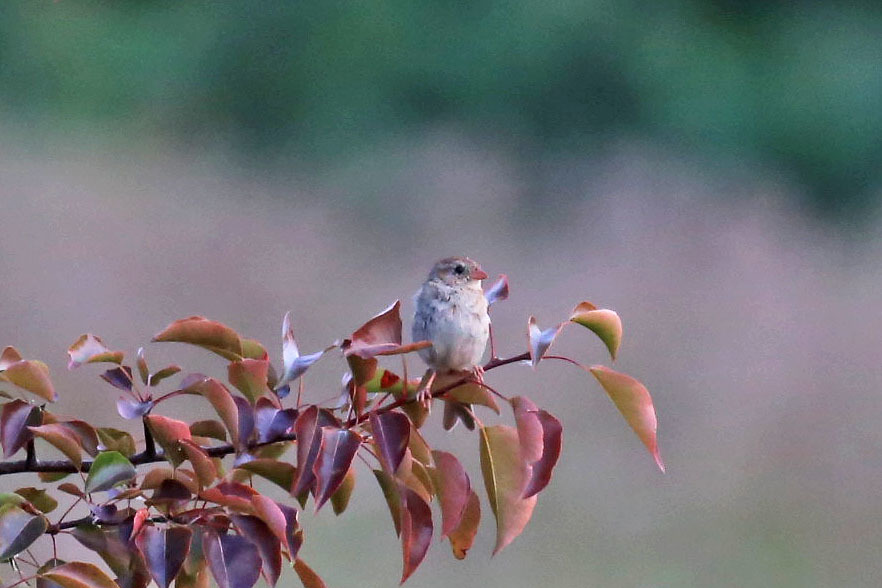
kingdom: Animalia
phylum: Chordata
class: Aves
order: Passeriformes
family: Passerellidae
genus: Spizella
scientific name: Spizella pusilla
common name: Field sparrow
